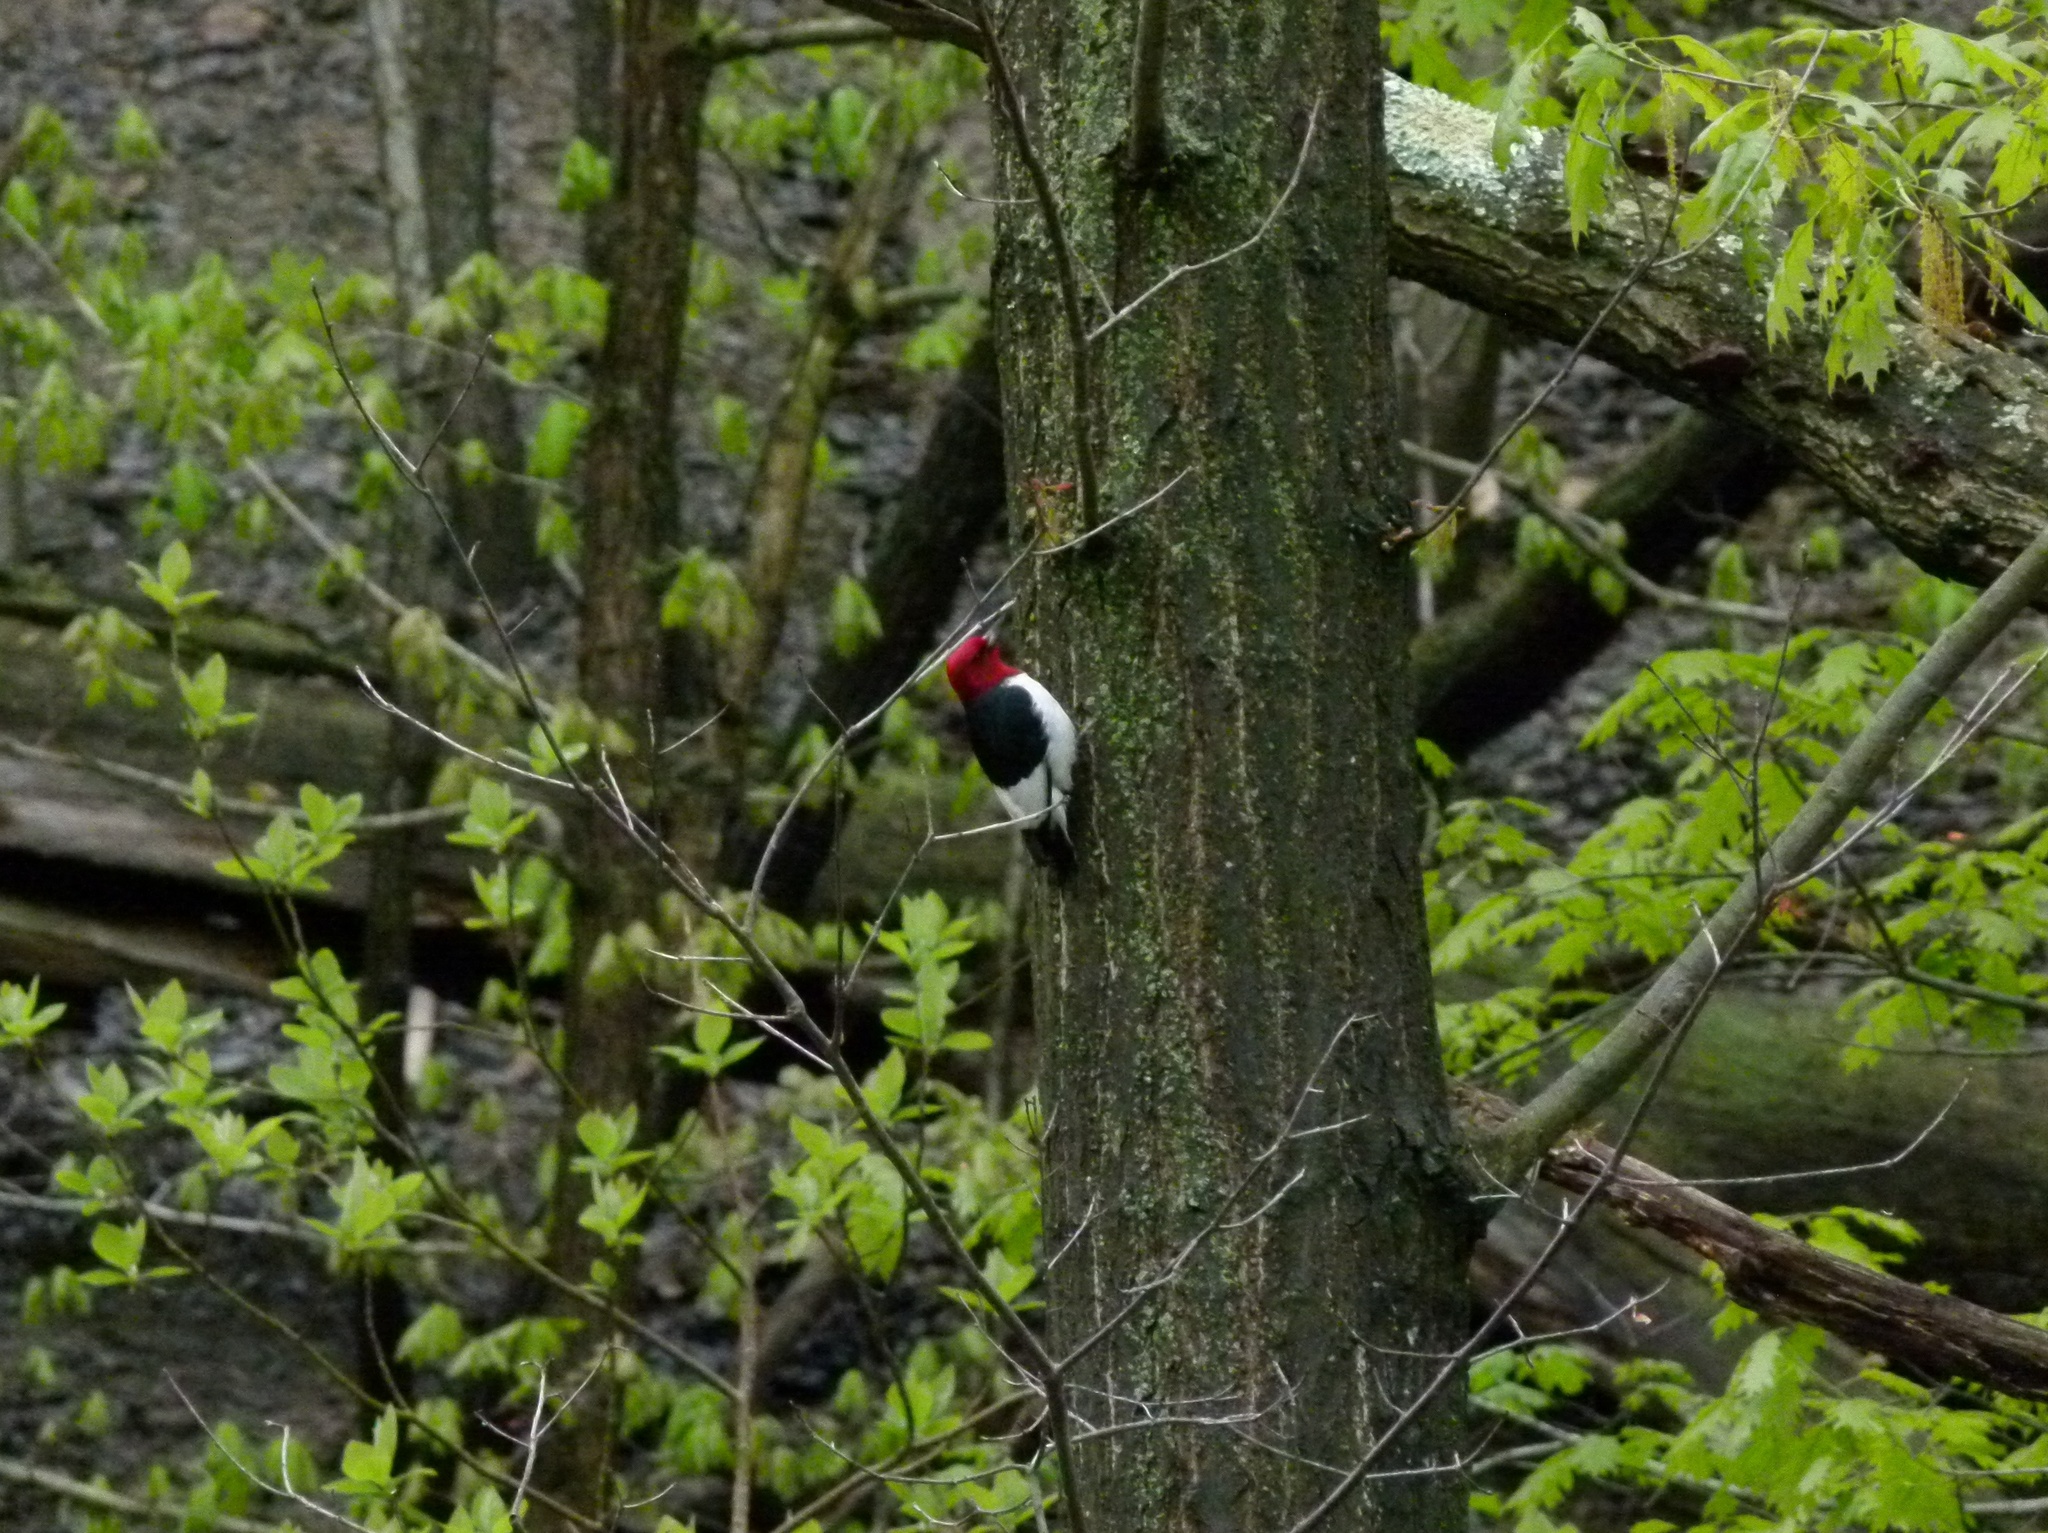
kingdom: Animalia
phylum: Chordata
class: Aves
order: Piciformes
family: Picidae
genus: Melanerpes
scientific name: Melanerpes erythrocephalus
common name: Red-headed woodpecker
